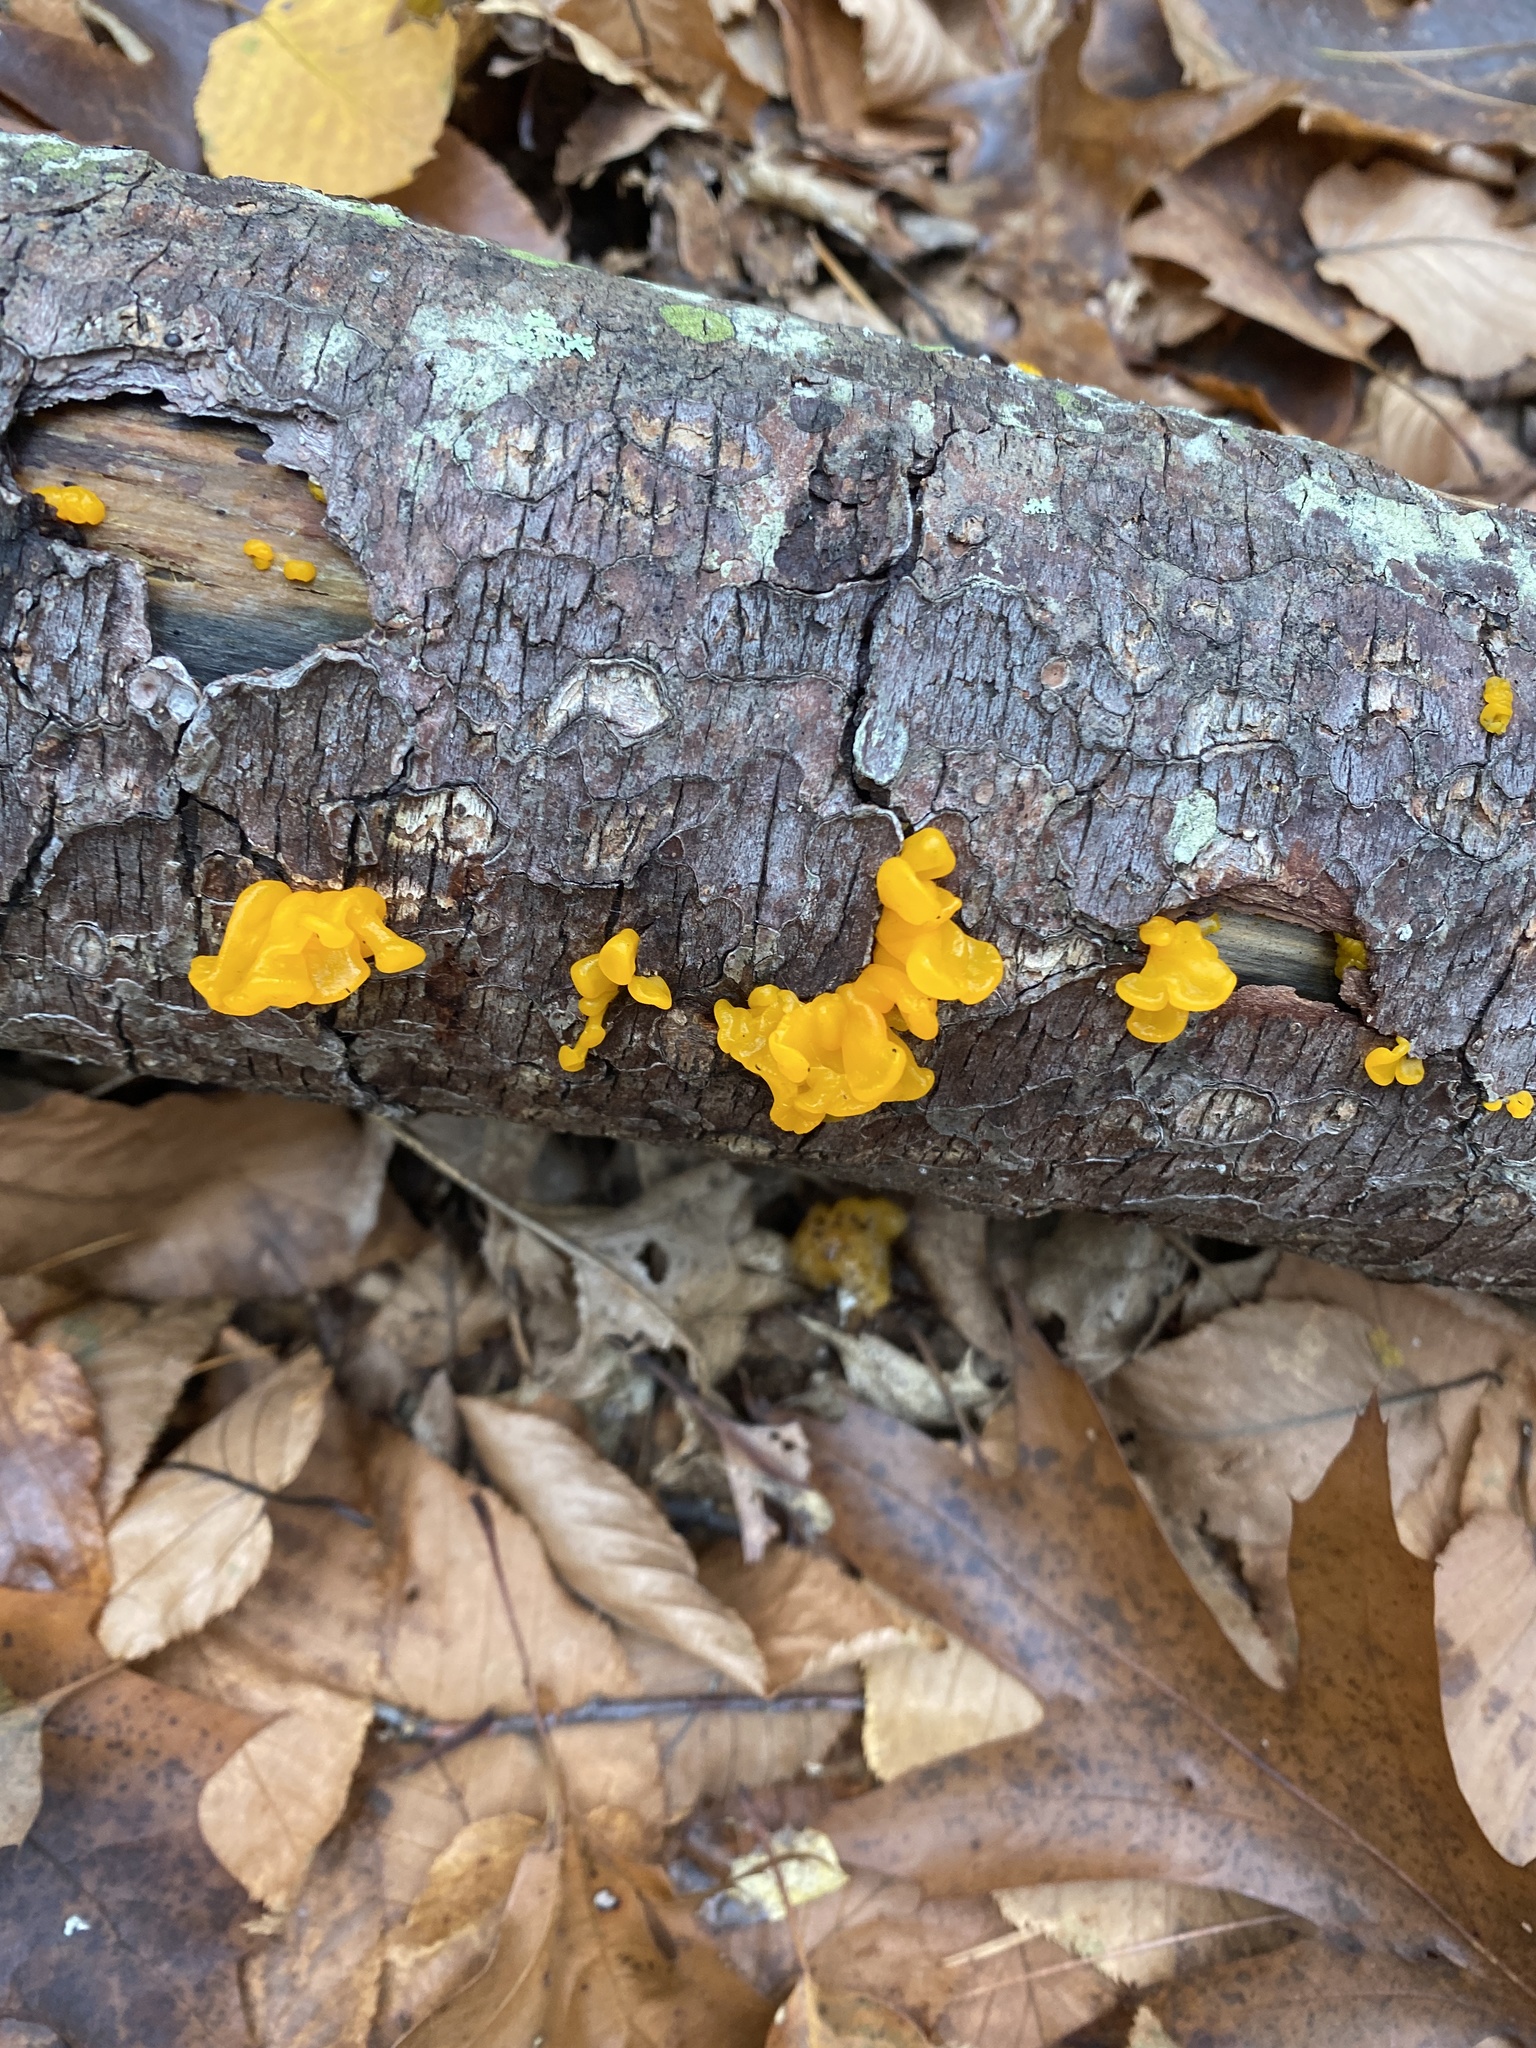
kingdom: Fungi
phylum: Basidiomycota
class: Dacrymycetes
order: Dacrymycetales
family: Dacrymycetaceae
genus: Dacrymyces
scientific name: Dacrymyces chrysospermus
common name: Orange jelly spot
